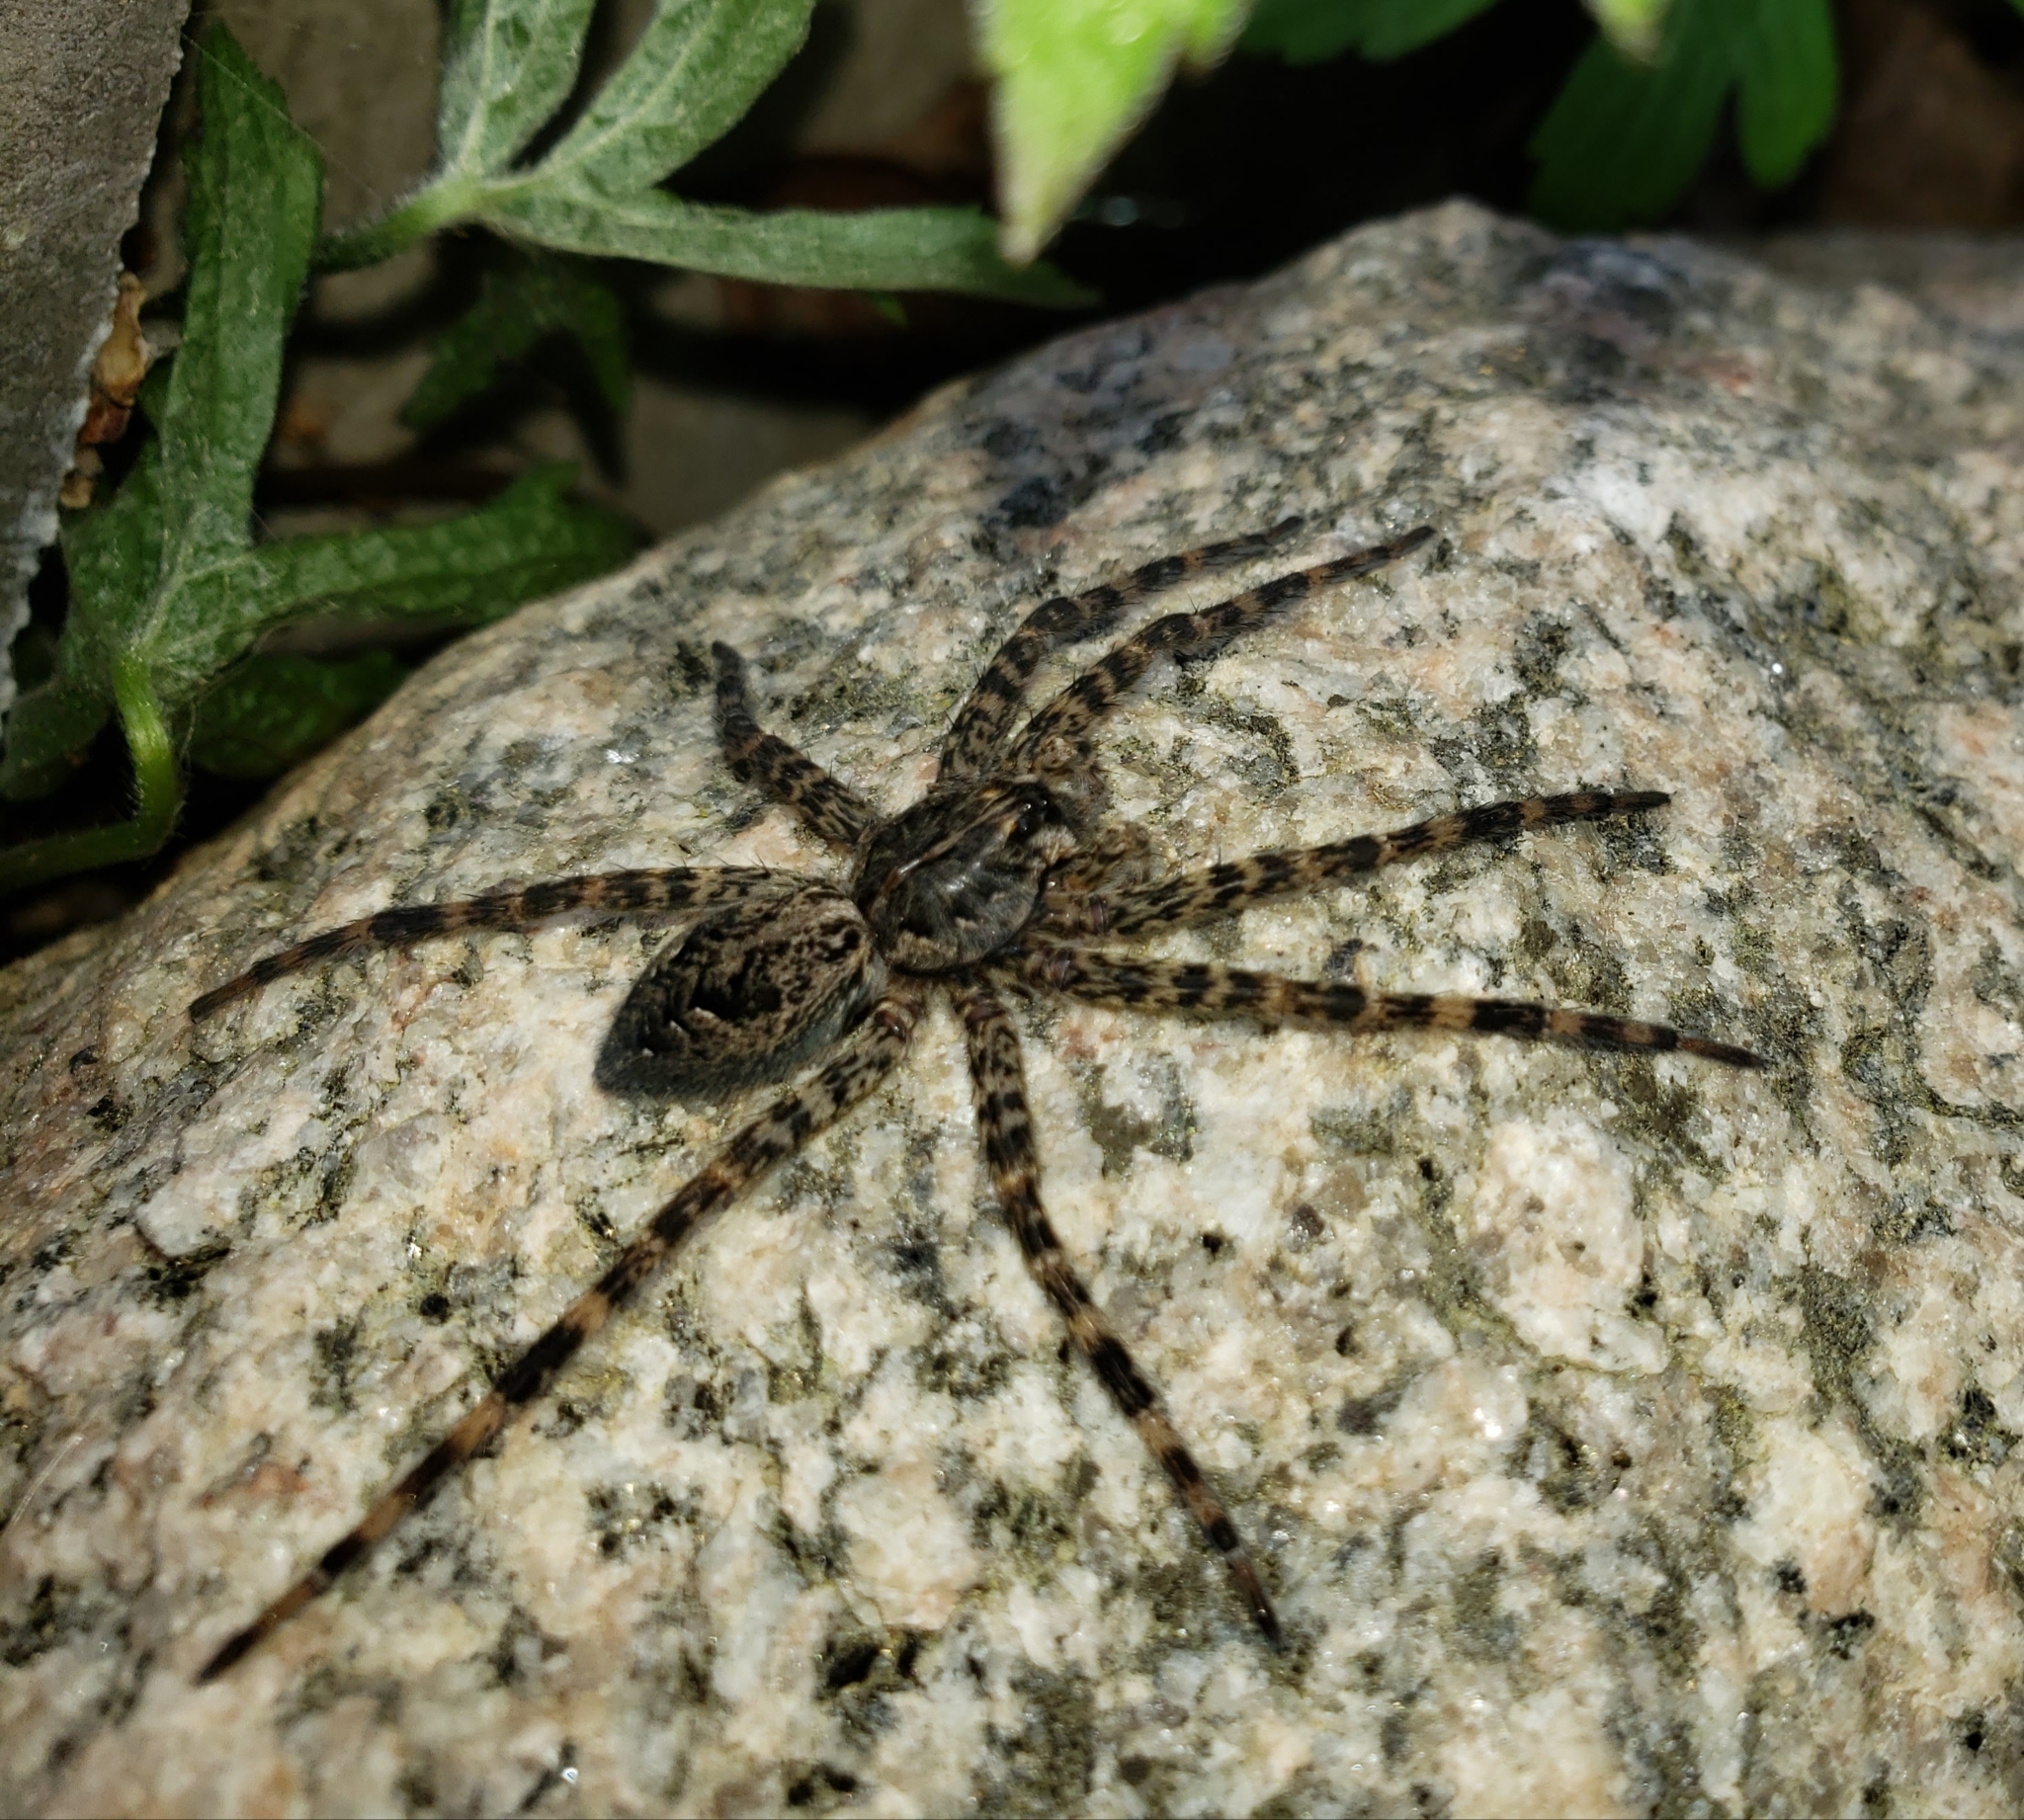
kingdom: Animalia
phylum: Arthropoda
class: Arachnida
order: Araneae
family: Pisauridae
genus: Dolomedes
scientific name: Dolomedes tenebrosus
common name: Dark fishing spider
